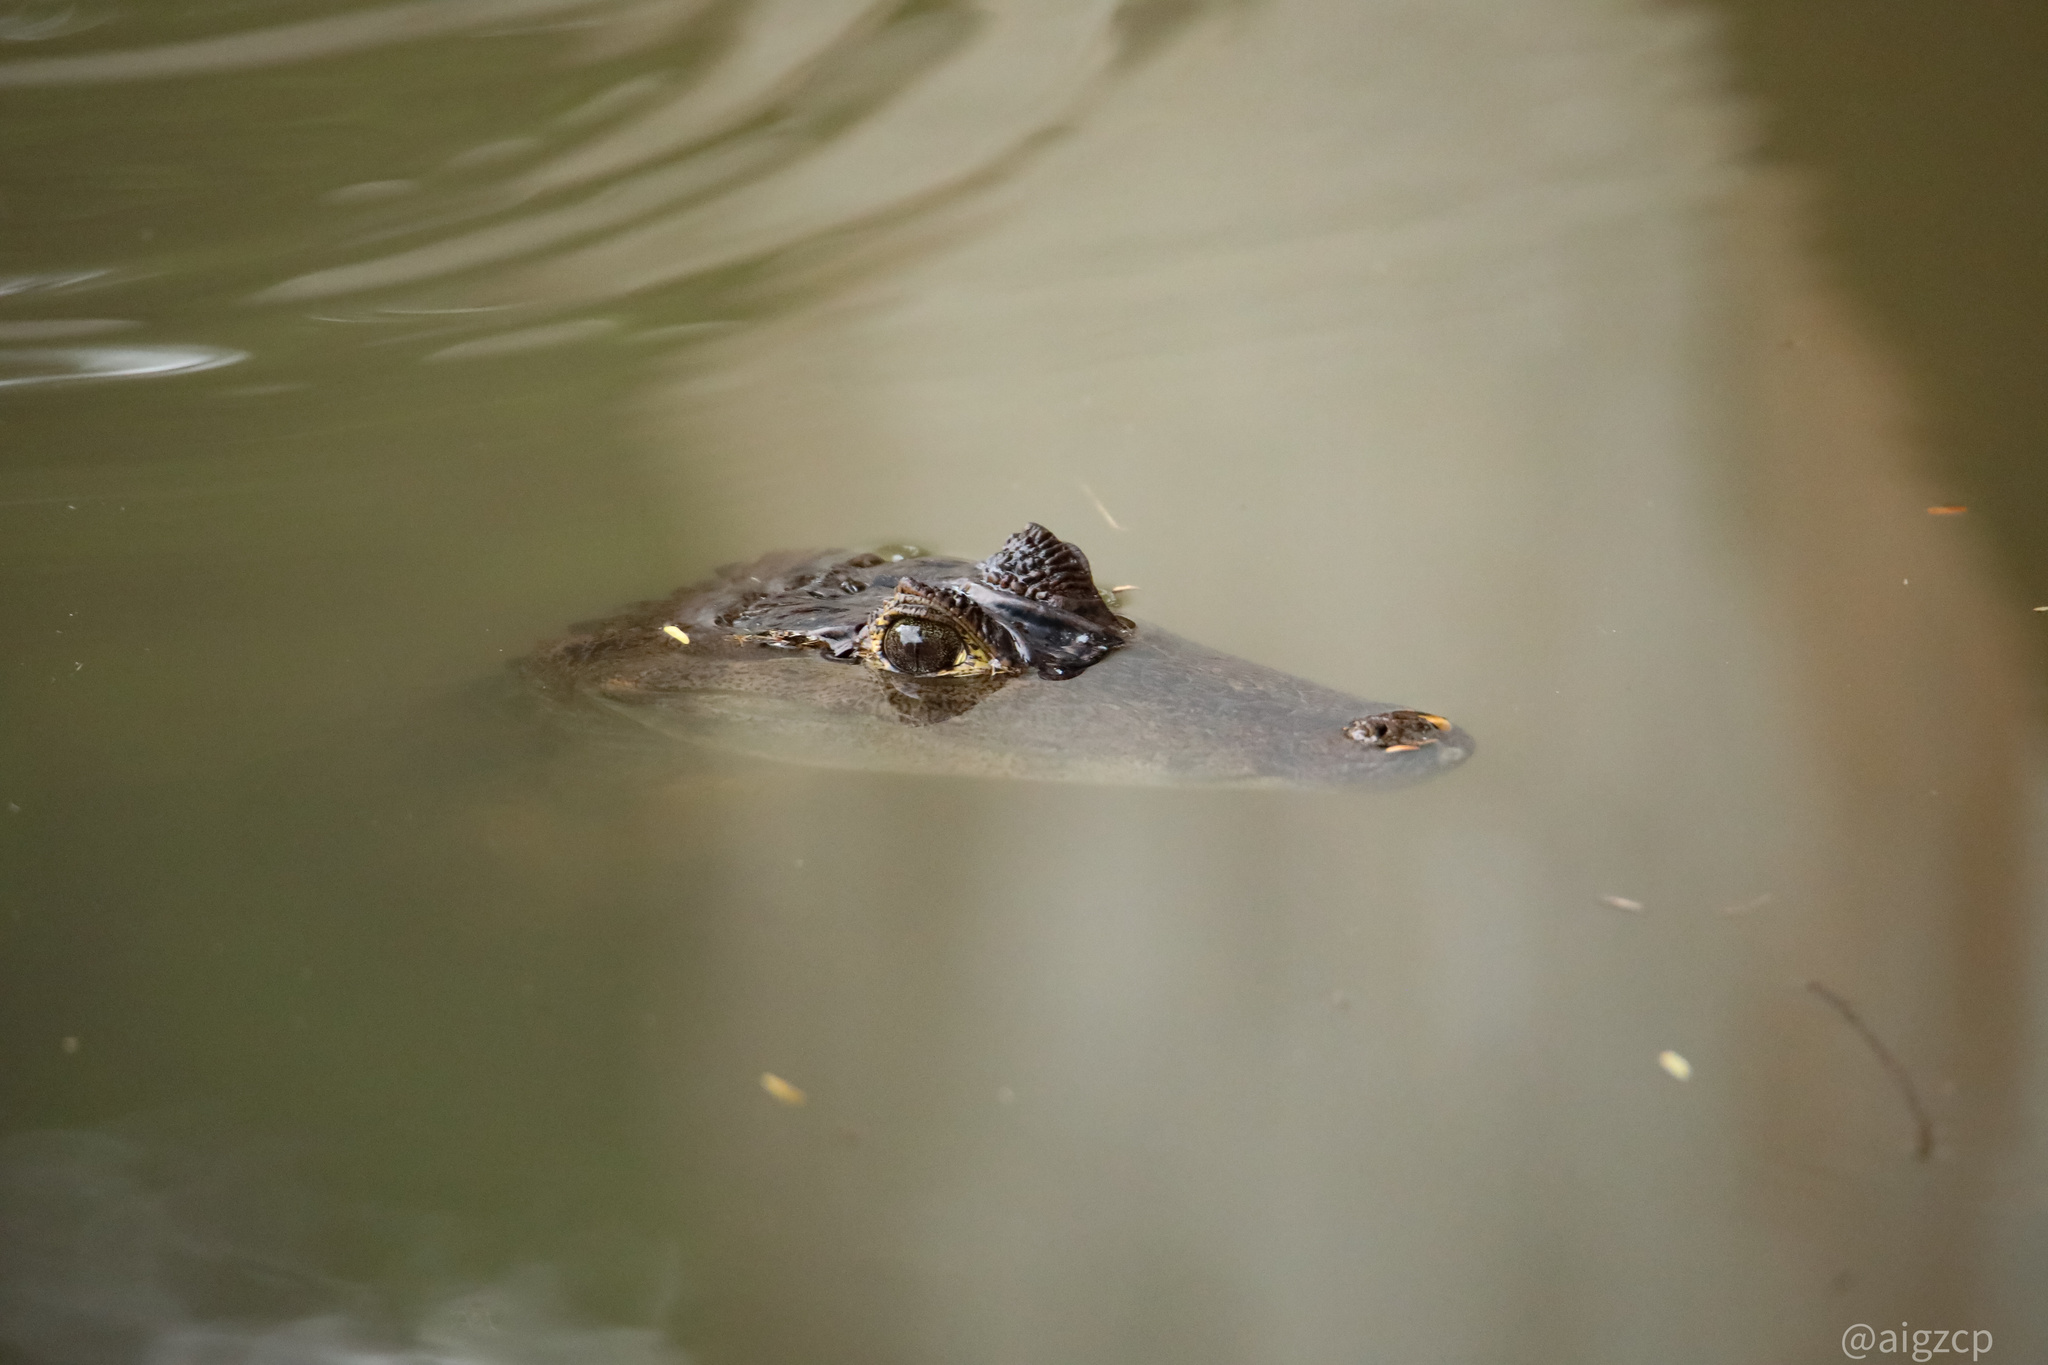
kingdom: Animalia
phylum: Chordata
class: Crocodylia
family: Alligatoridae
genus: Caiman
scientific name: Caiman crocodilus
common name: Common caiman
